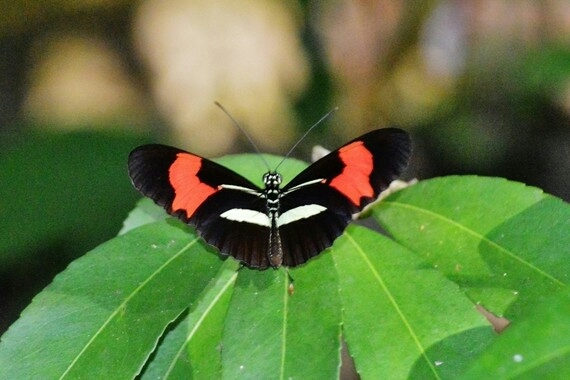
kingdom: Animalia
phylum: Arthropoda
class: Insecta
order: Lepidoptera
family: Nymphalidae
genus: Heliconius
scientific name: Heliconius erato
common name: Common patch longwing
